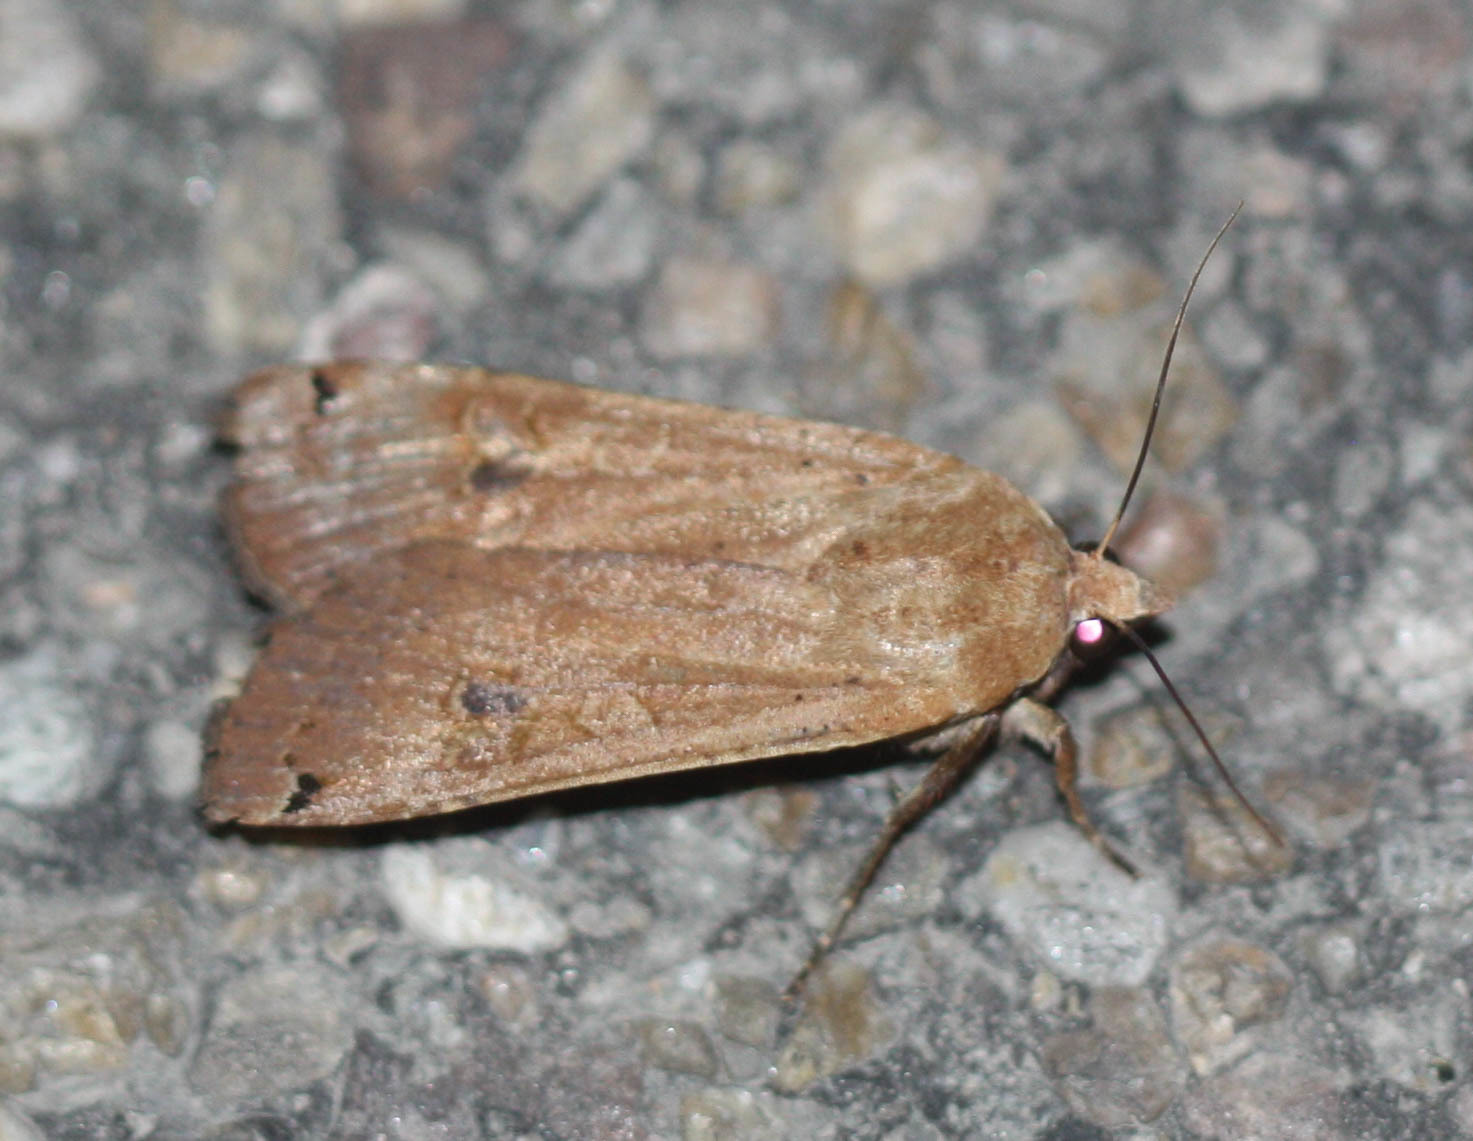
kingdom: Animalia
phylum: Arthropoda
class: Insecta
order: Lepidoptera
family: Noctuidae
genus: Noctua
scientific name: Noctua pronuba
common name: Large yellow underwing
